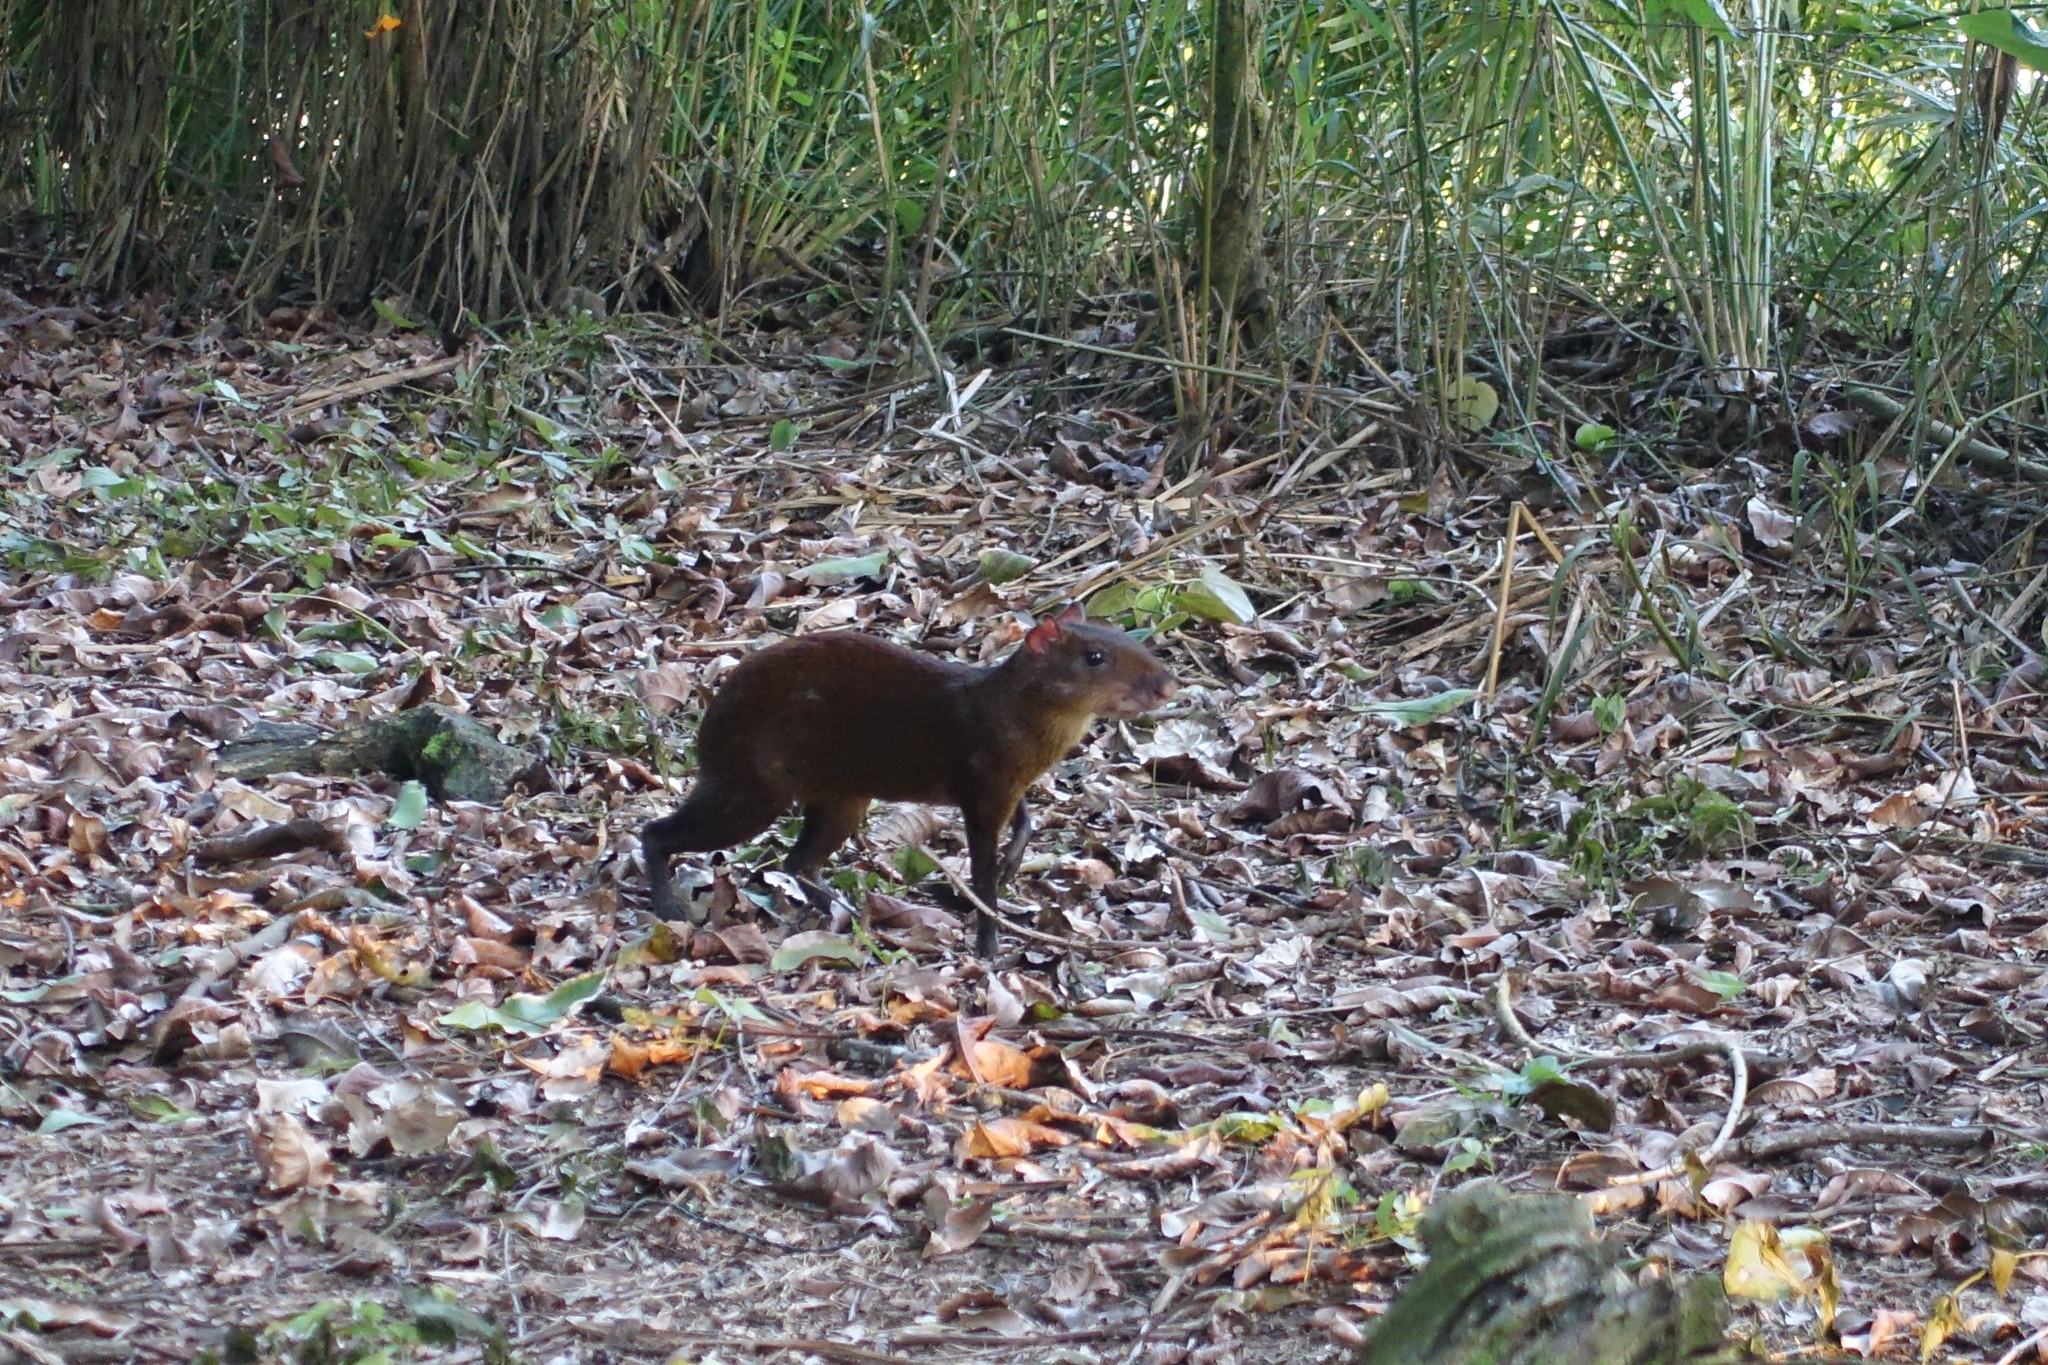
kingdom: Animalia
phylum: Chordata
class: Mammalia
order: Rodentia
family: Dasyproctidae
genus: Dasyprocta
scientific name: Dasyprocta punctata
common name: Central american agouti
